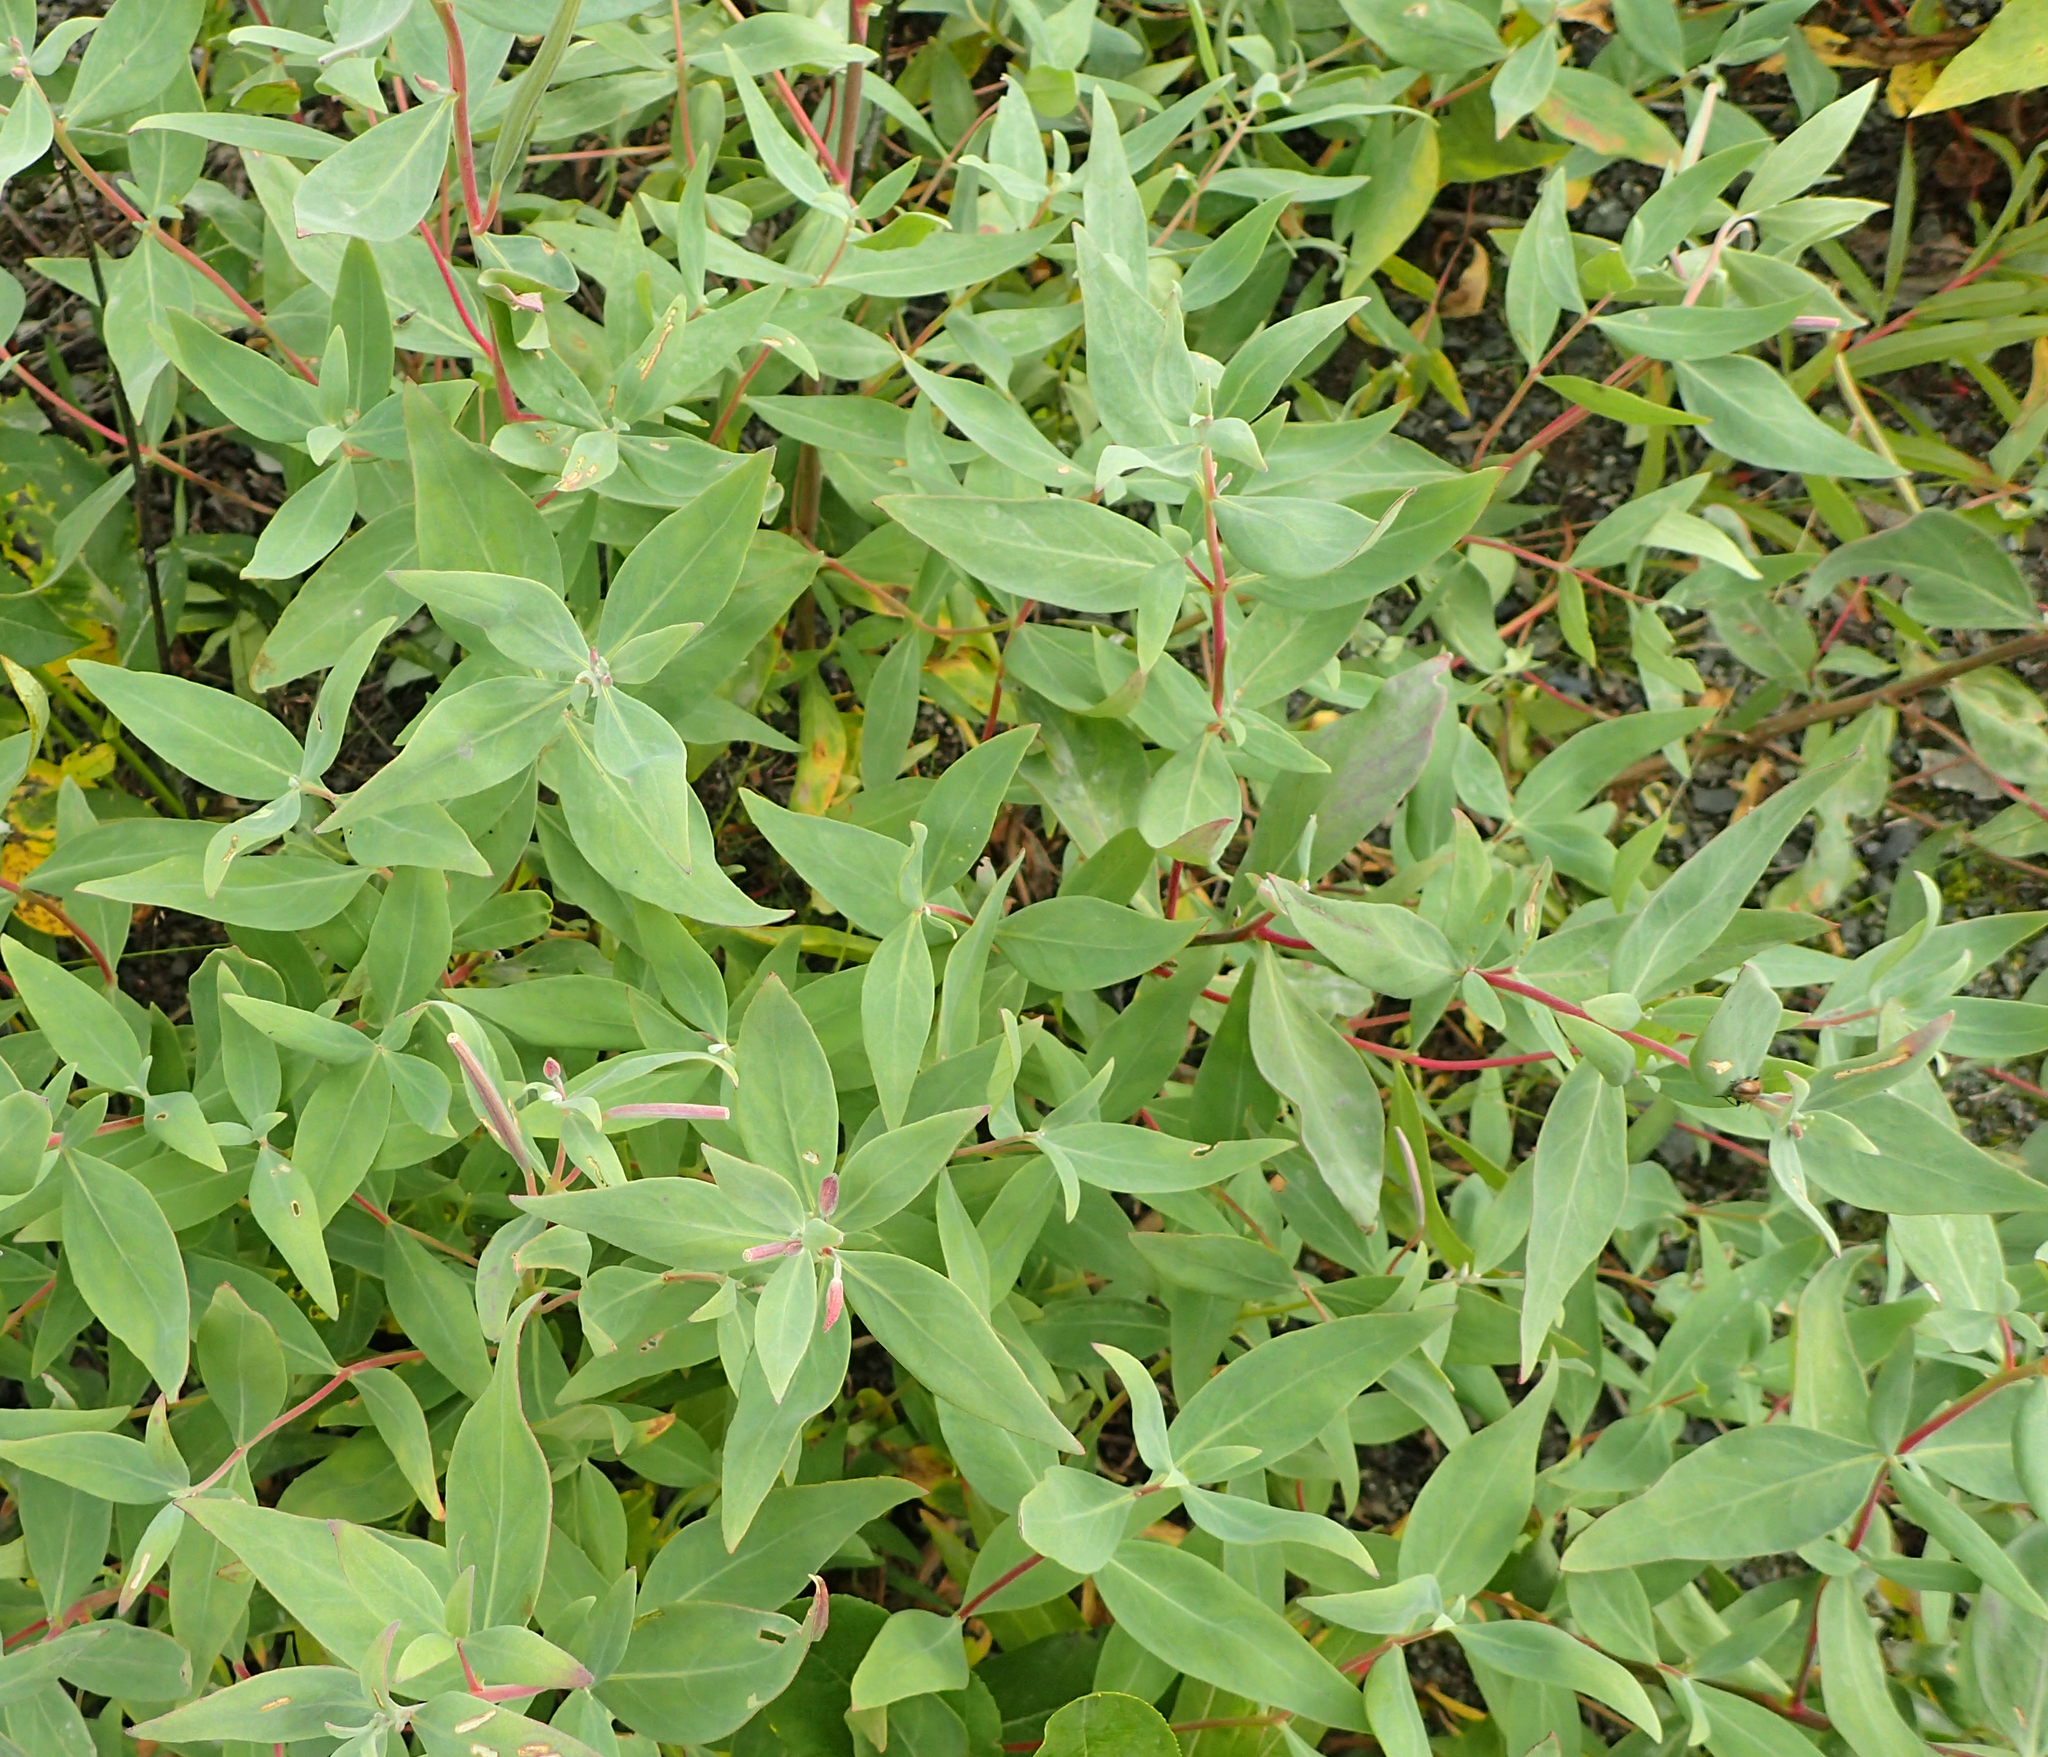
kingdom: Plantae
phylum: Tracheophyta
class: Magnoliopsida
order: Myrtales
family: Onagraceae
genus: Chamaenerion
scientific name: Chamaenerion latifolium
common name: Dwarf fireweed
